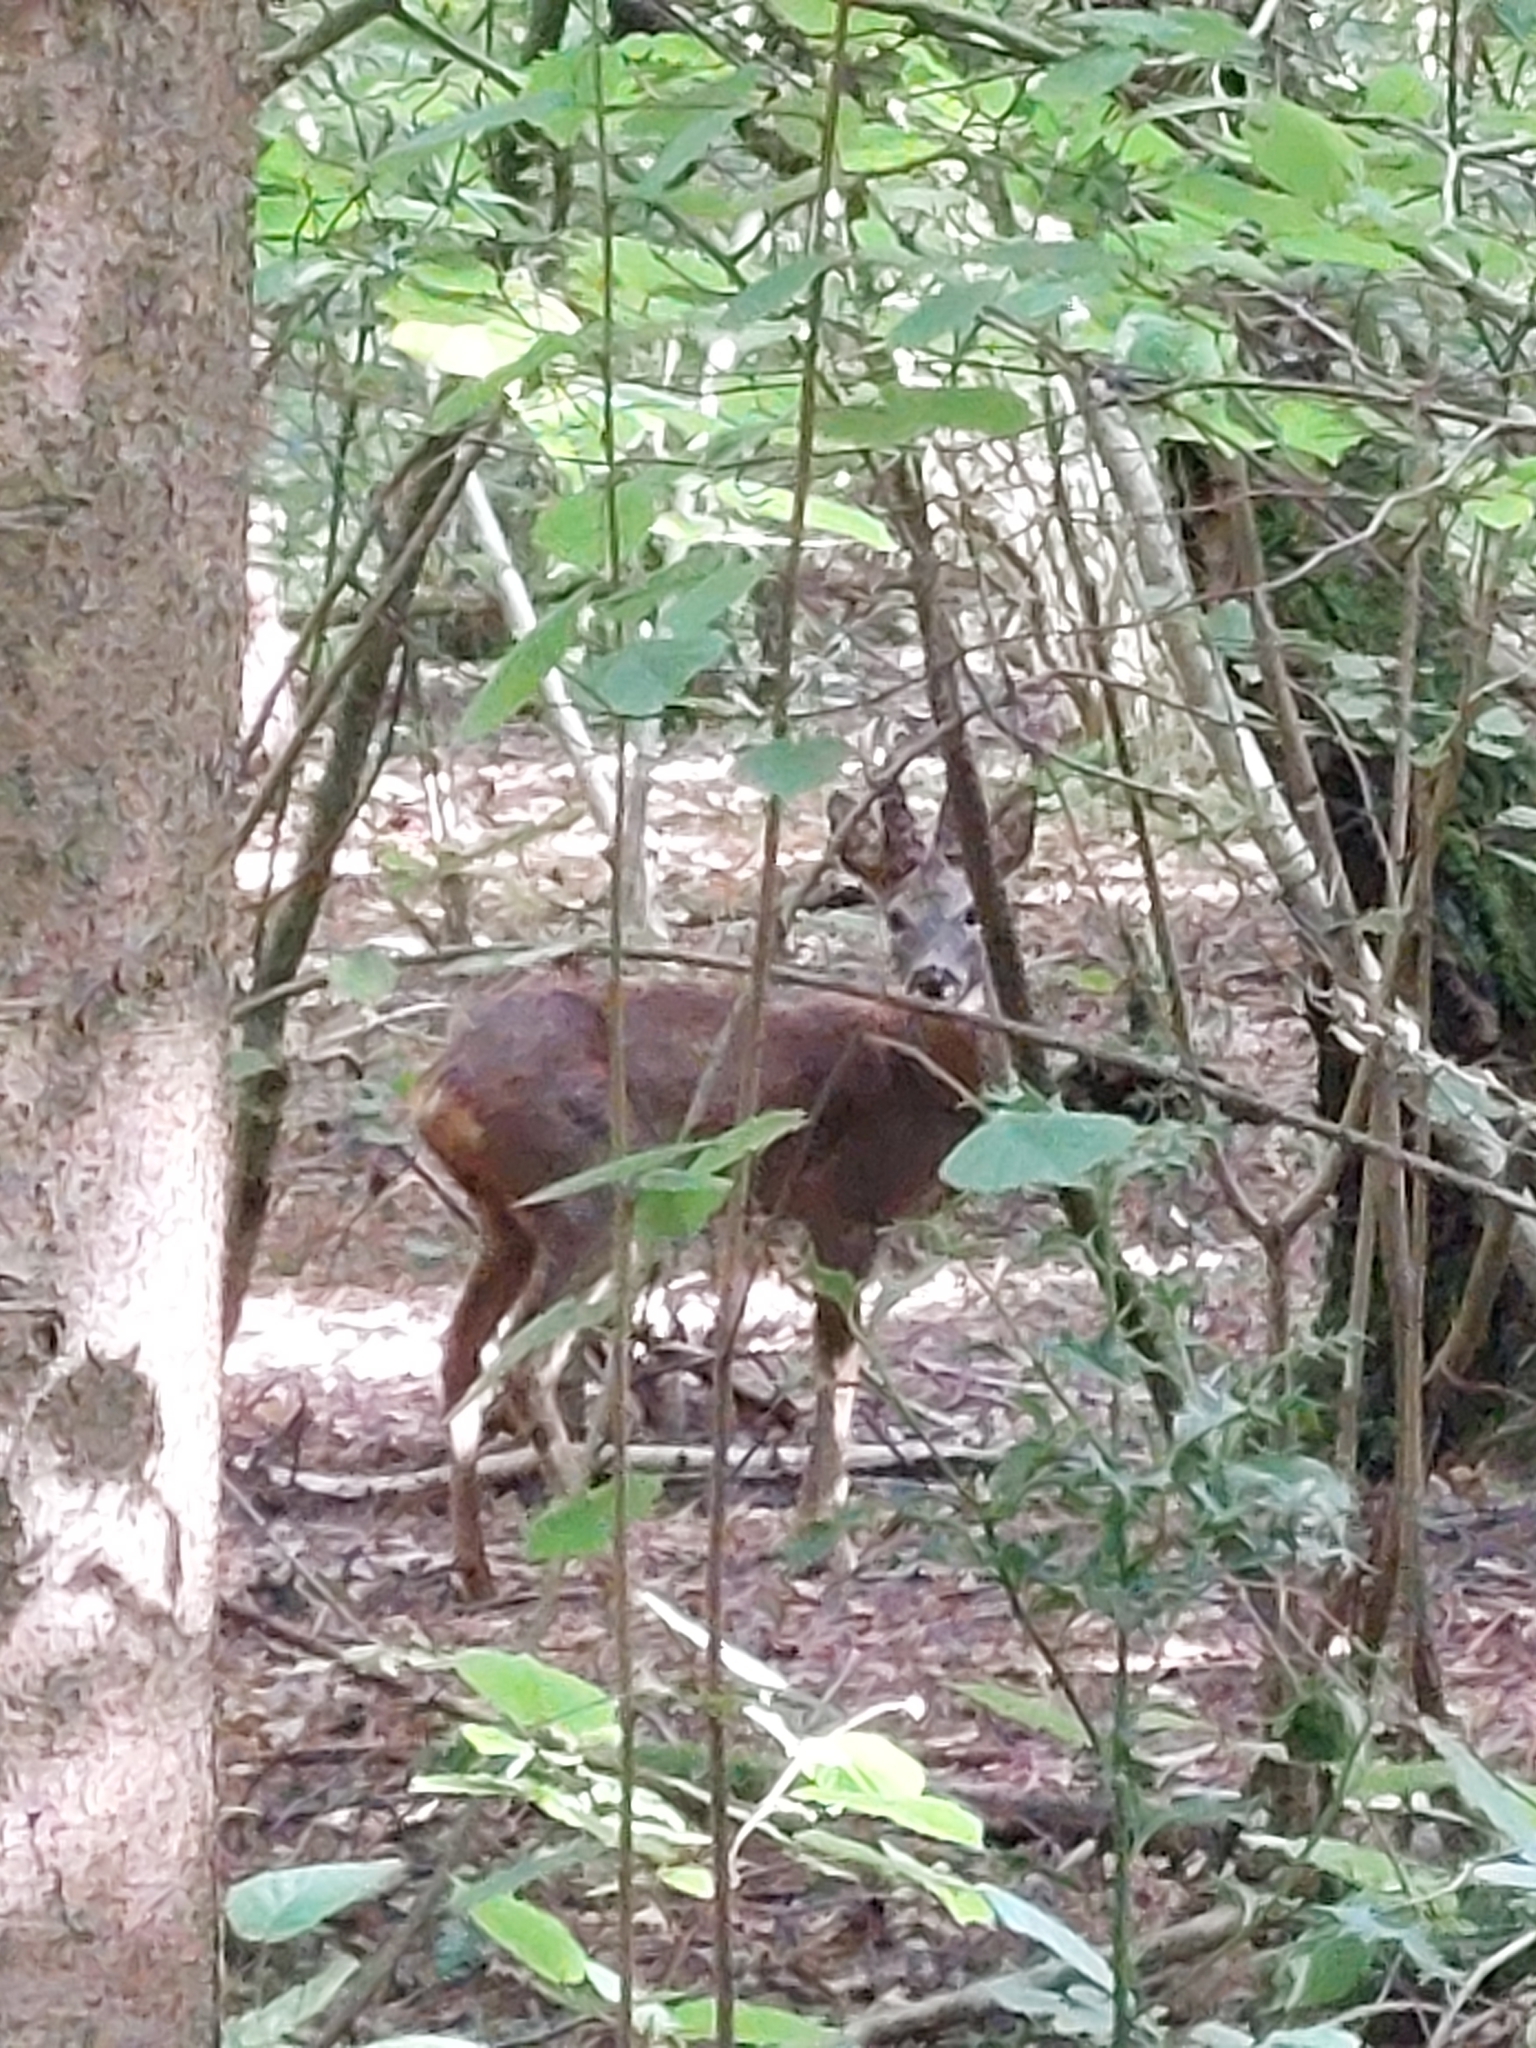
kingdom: Animalia
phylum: Chordata
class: Mammalia
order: Artiodactyla
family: Cervidae
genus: Capreolus
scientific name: Capreolus capreolus
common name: Western roe deer
